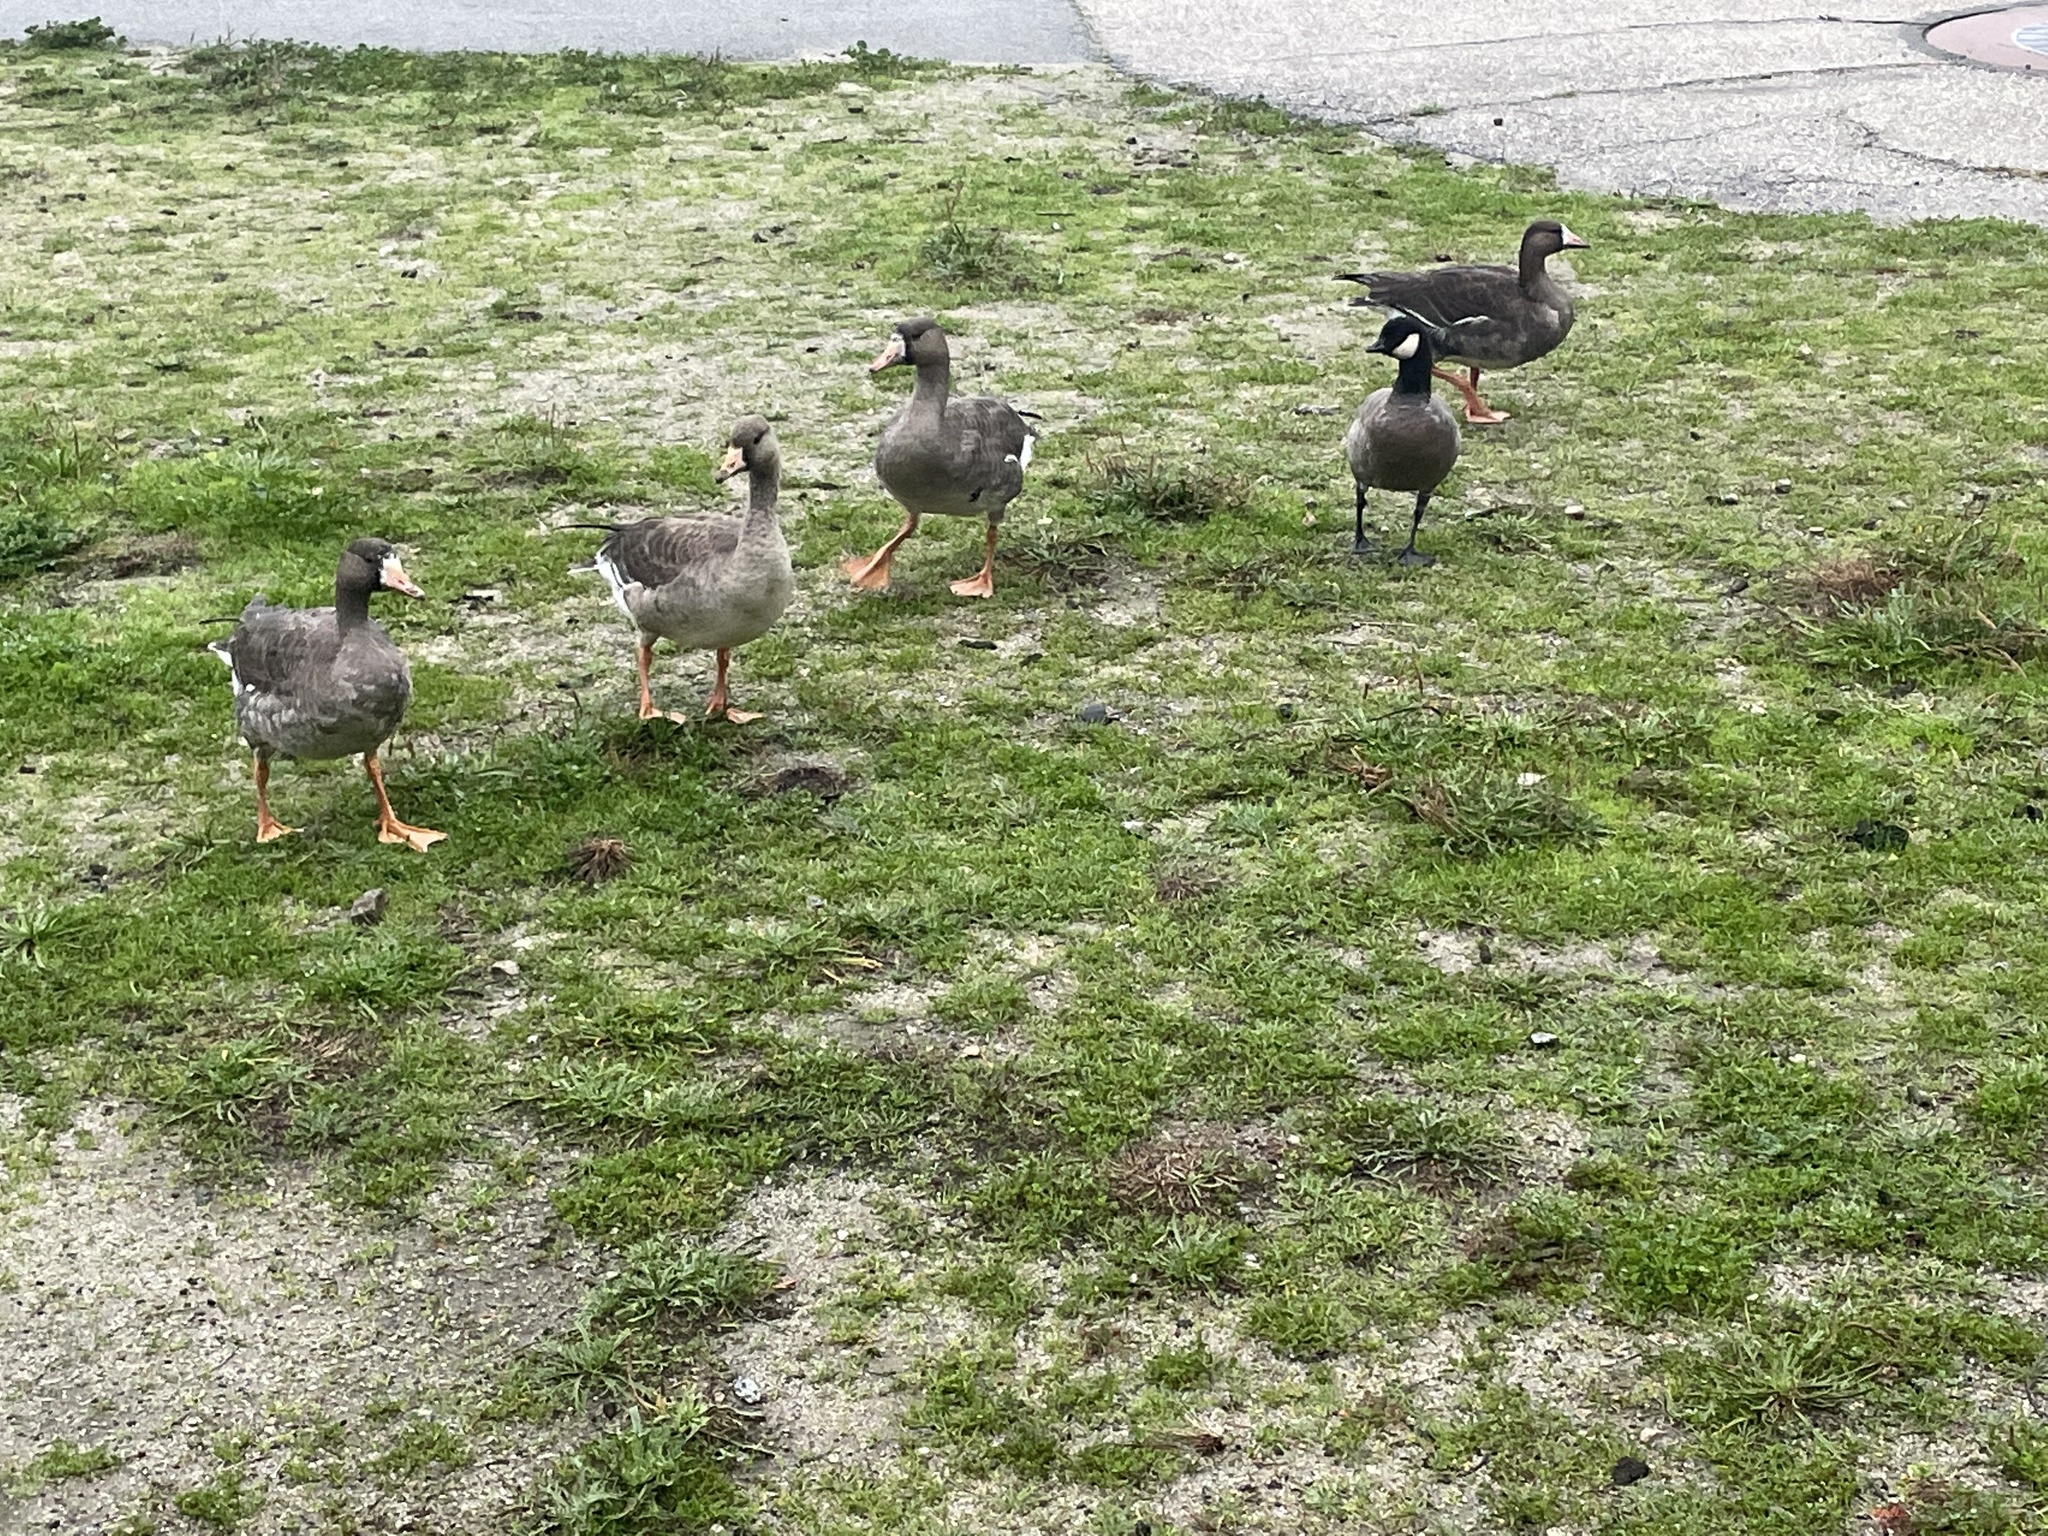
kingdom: Animalia
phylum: Chordata
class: Aves
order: Anseriformes
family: Anatidae
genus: Anser
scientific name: Anser albifrons
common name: Greater white-fronted goose
